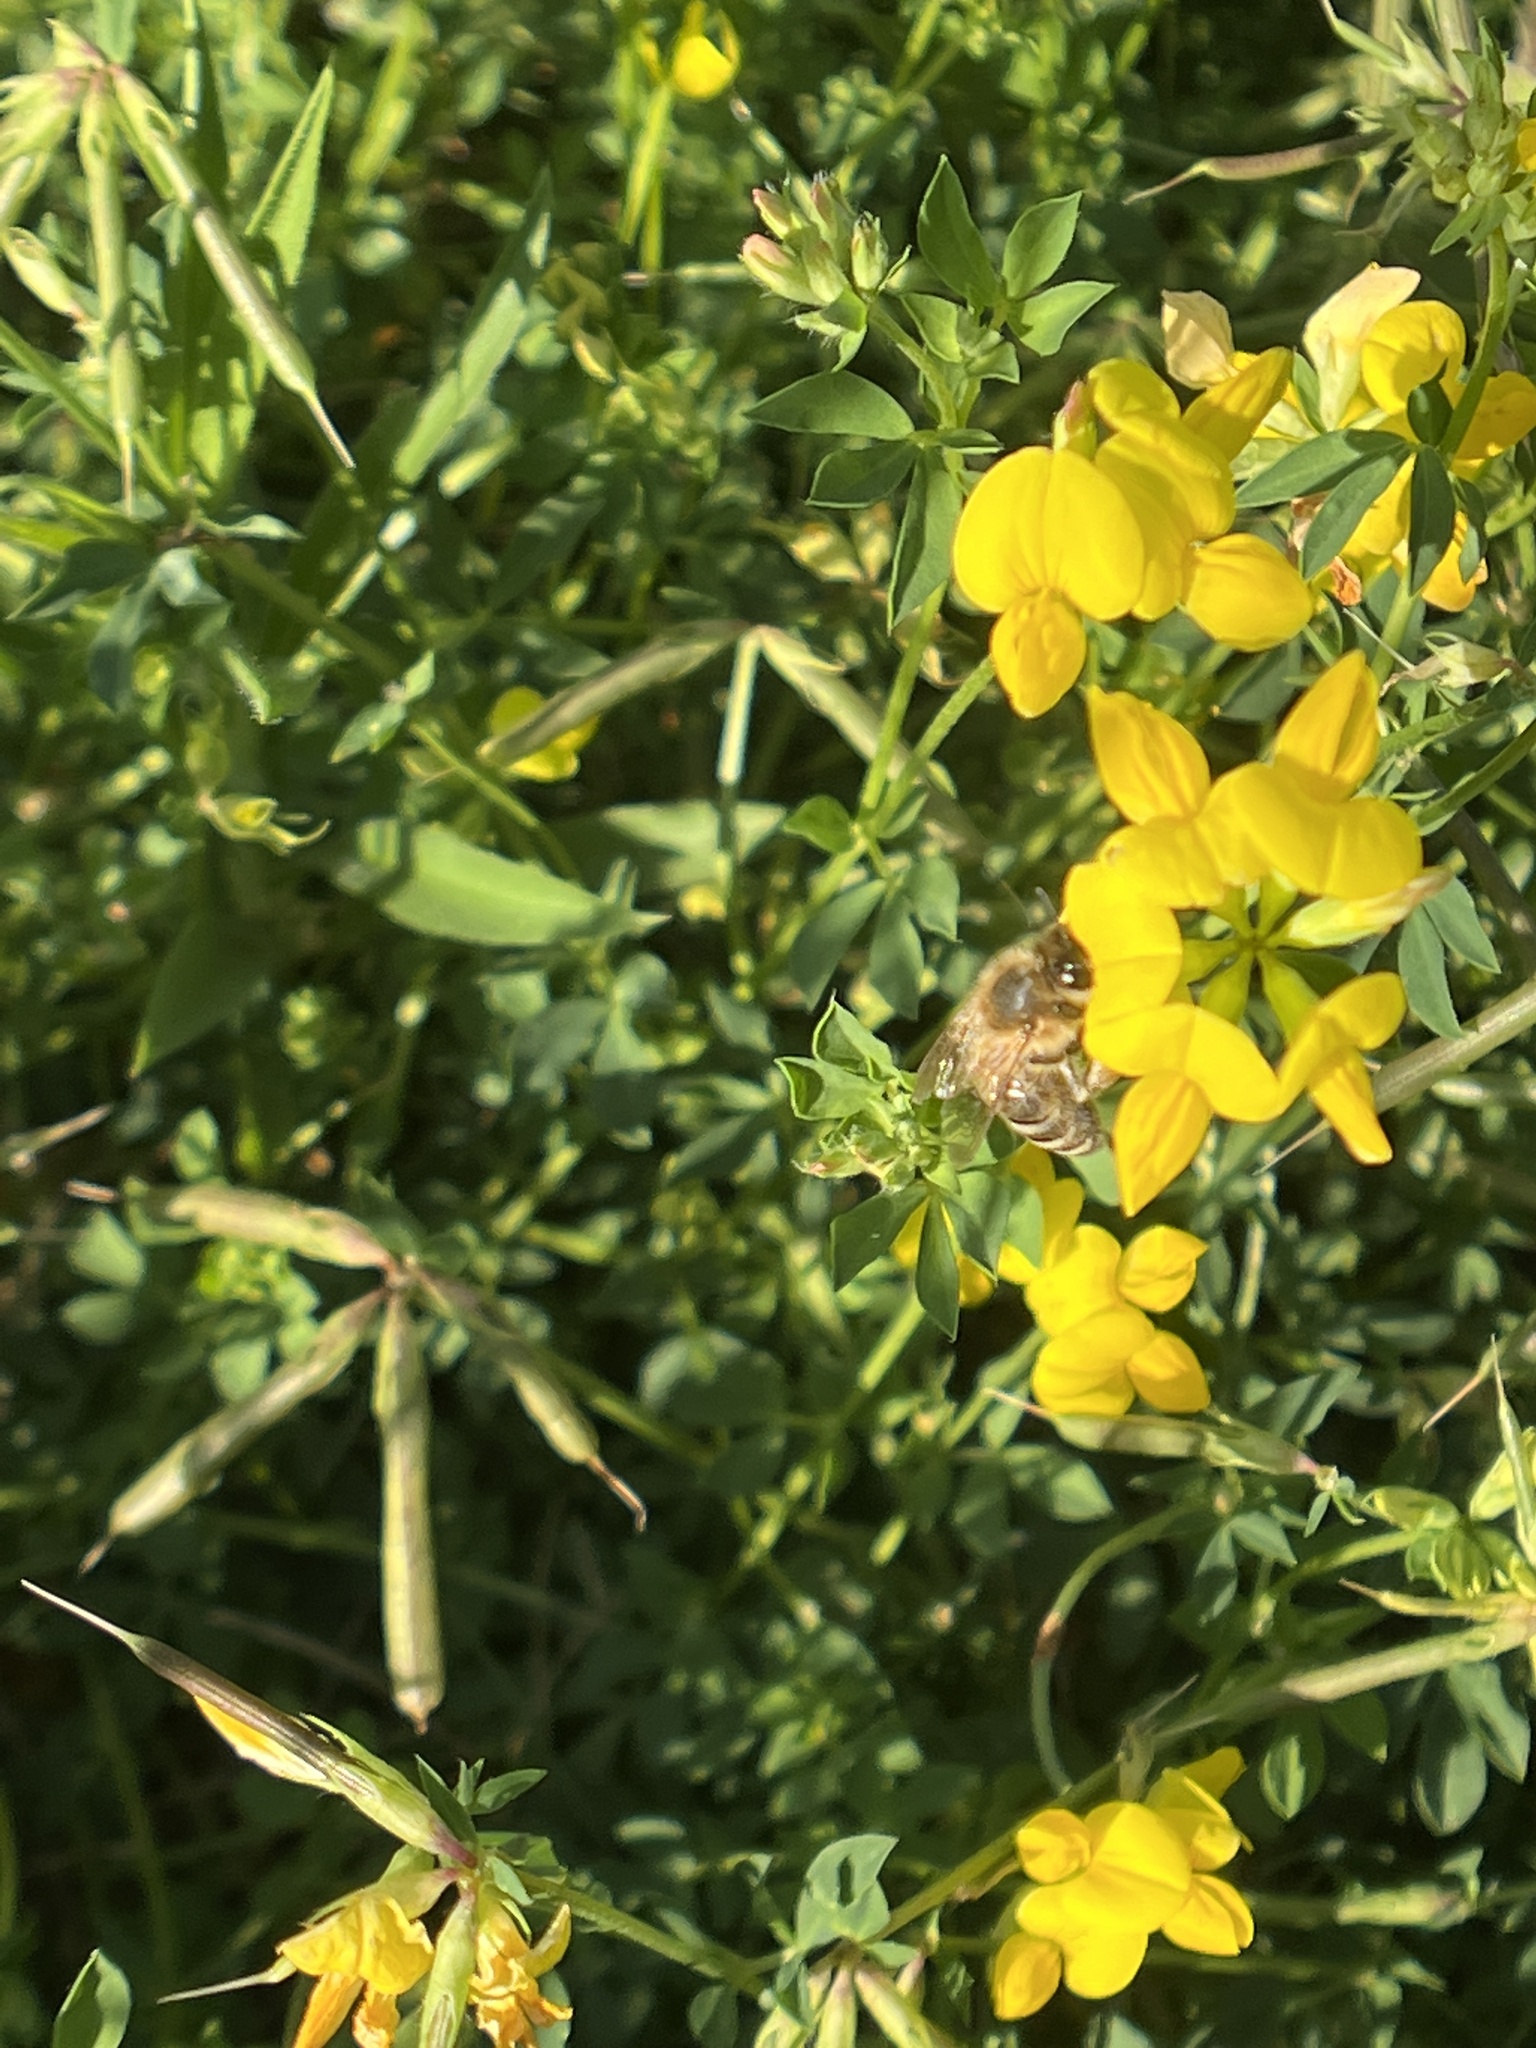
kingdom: Animalia
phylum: Arthropoda
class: Insecta
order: Hymenoptera
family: Apidae
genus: Apis
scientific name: Apis mellifera
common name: Honey bee
